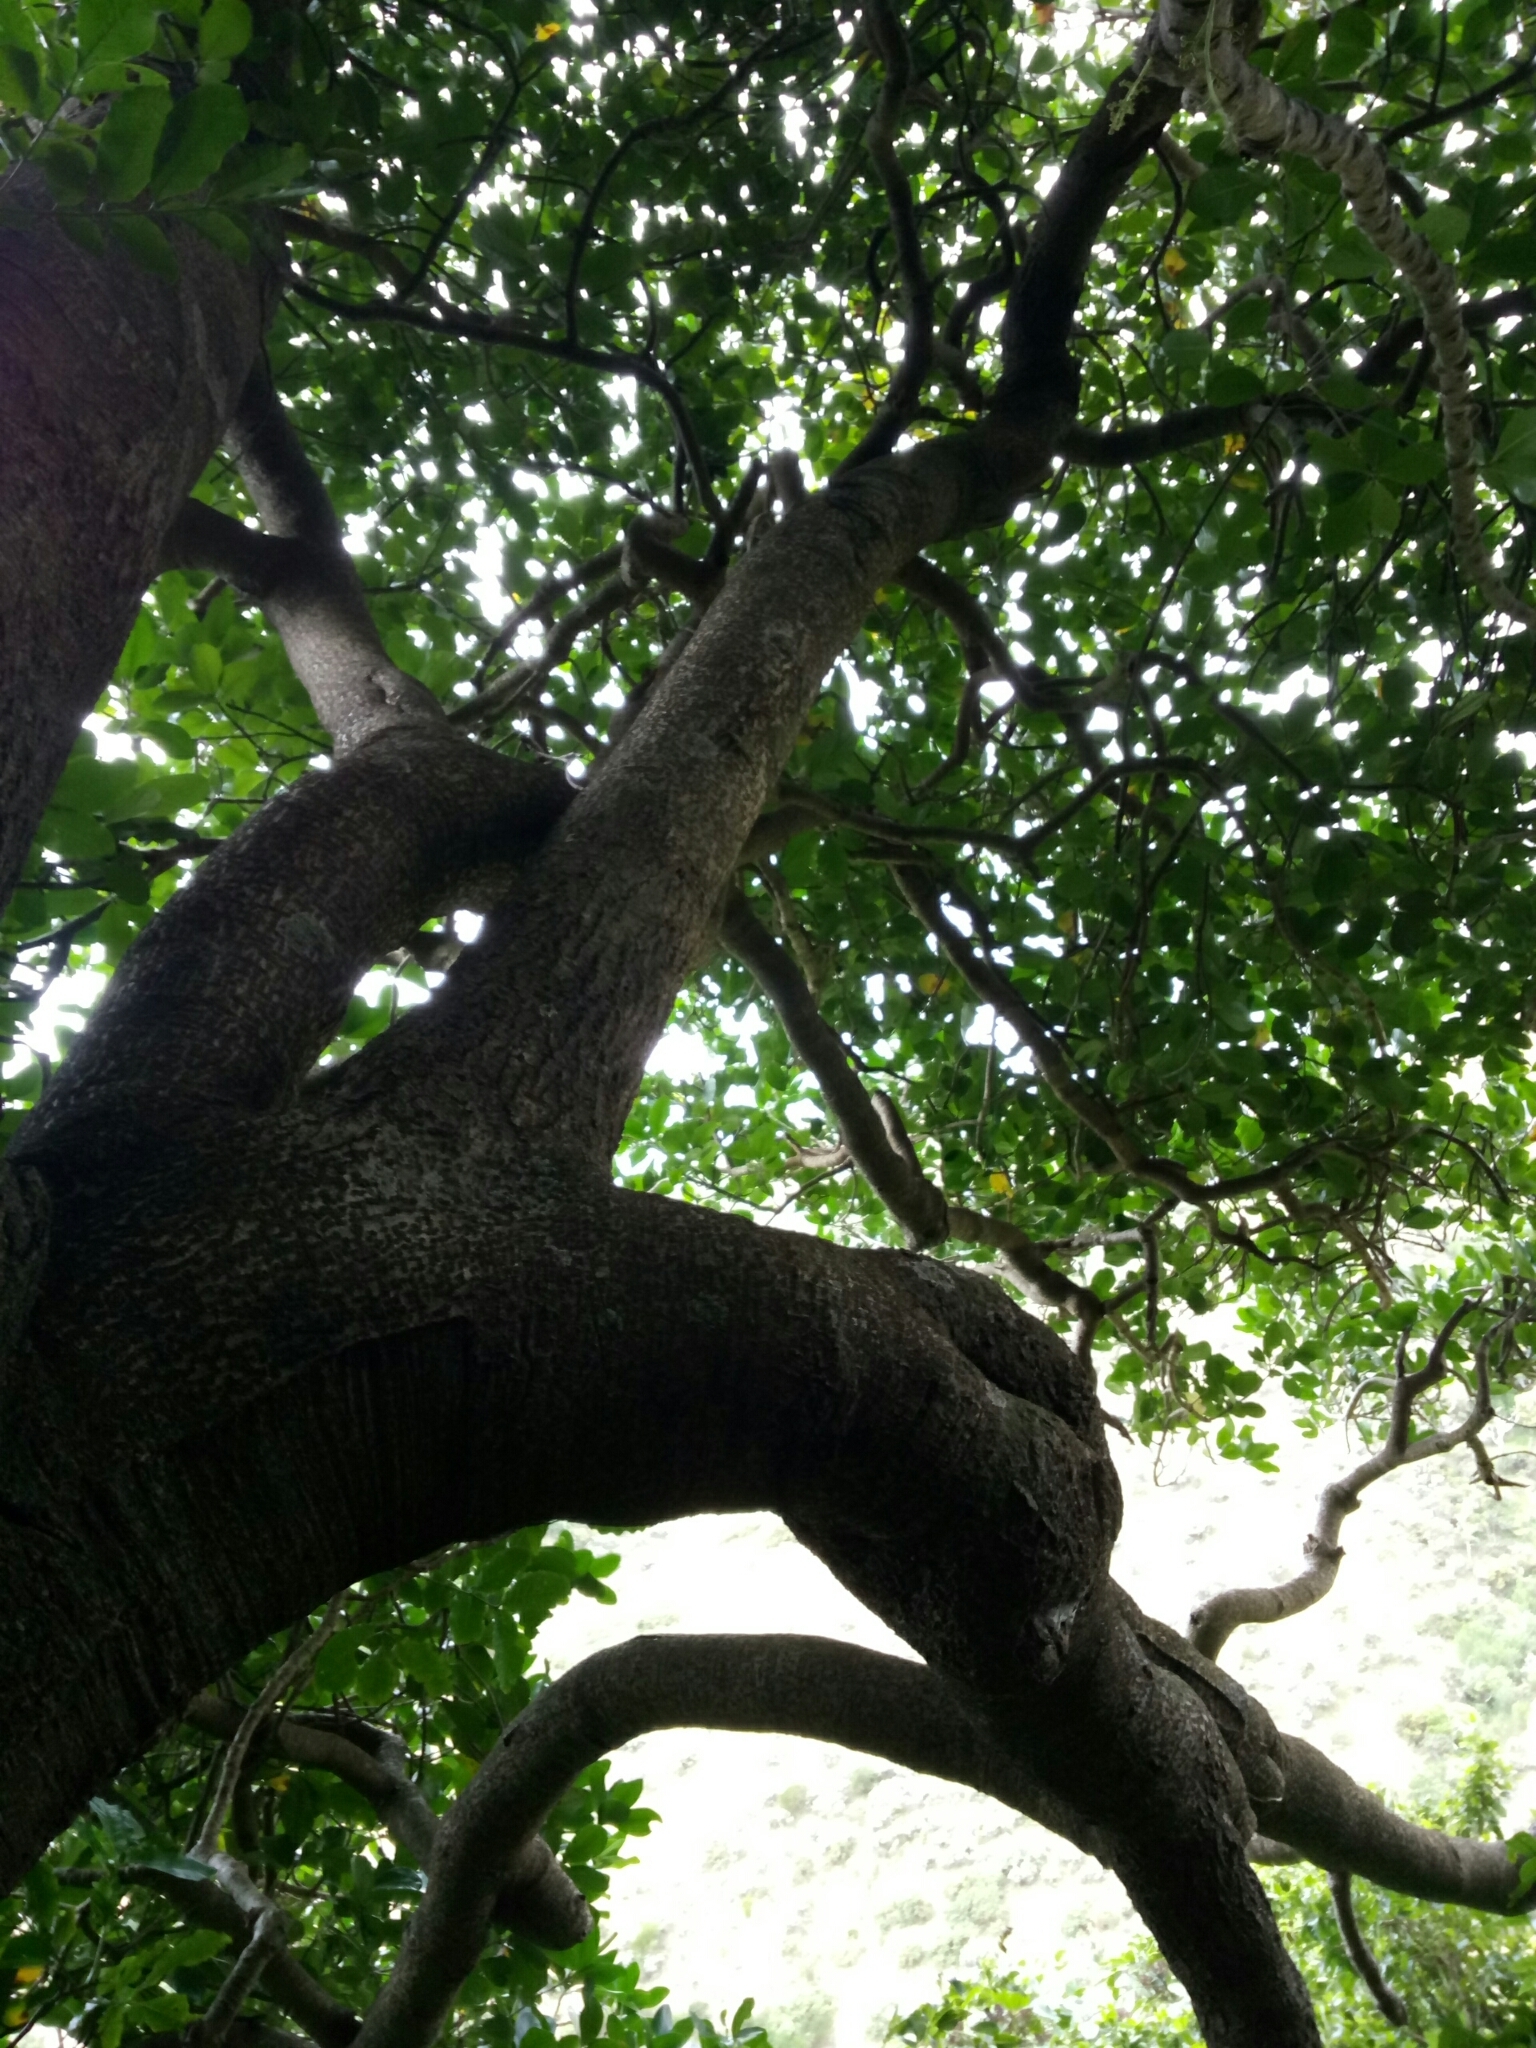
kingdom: Plantae
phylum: Tracheophyta
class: Magnoliopsida
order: Cucurbitales
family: Corynocarpaceae
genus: Corynocarpus
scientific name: Corynocarpus laevigatus
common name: New zealand laurel
